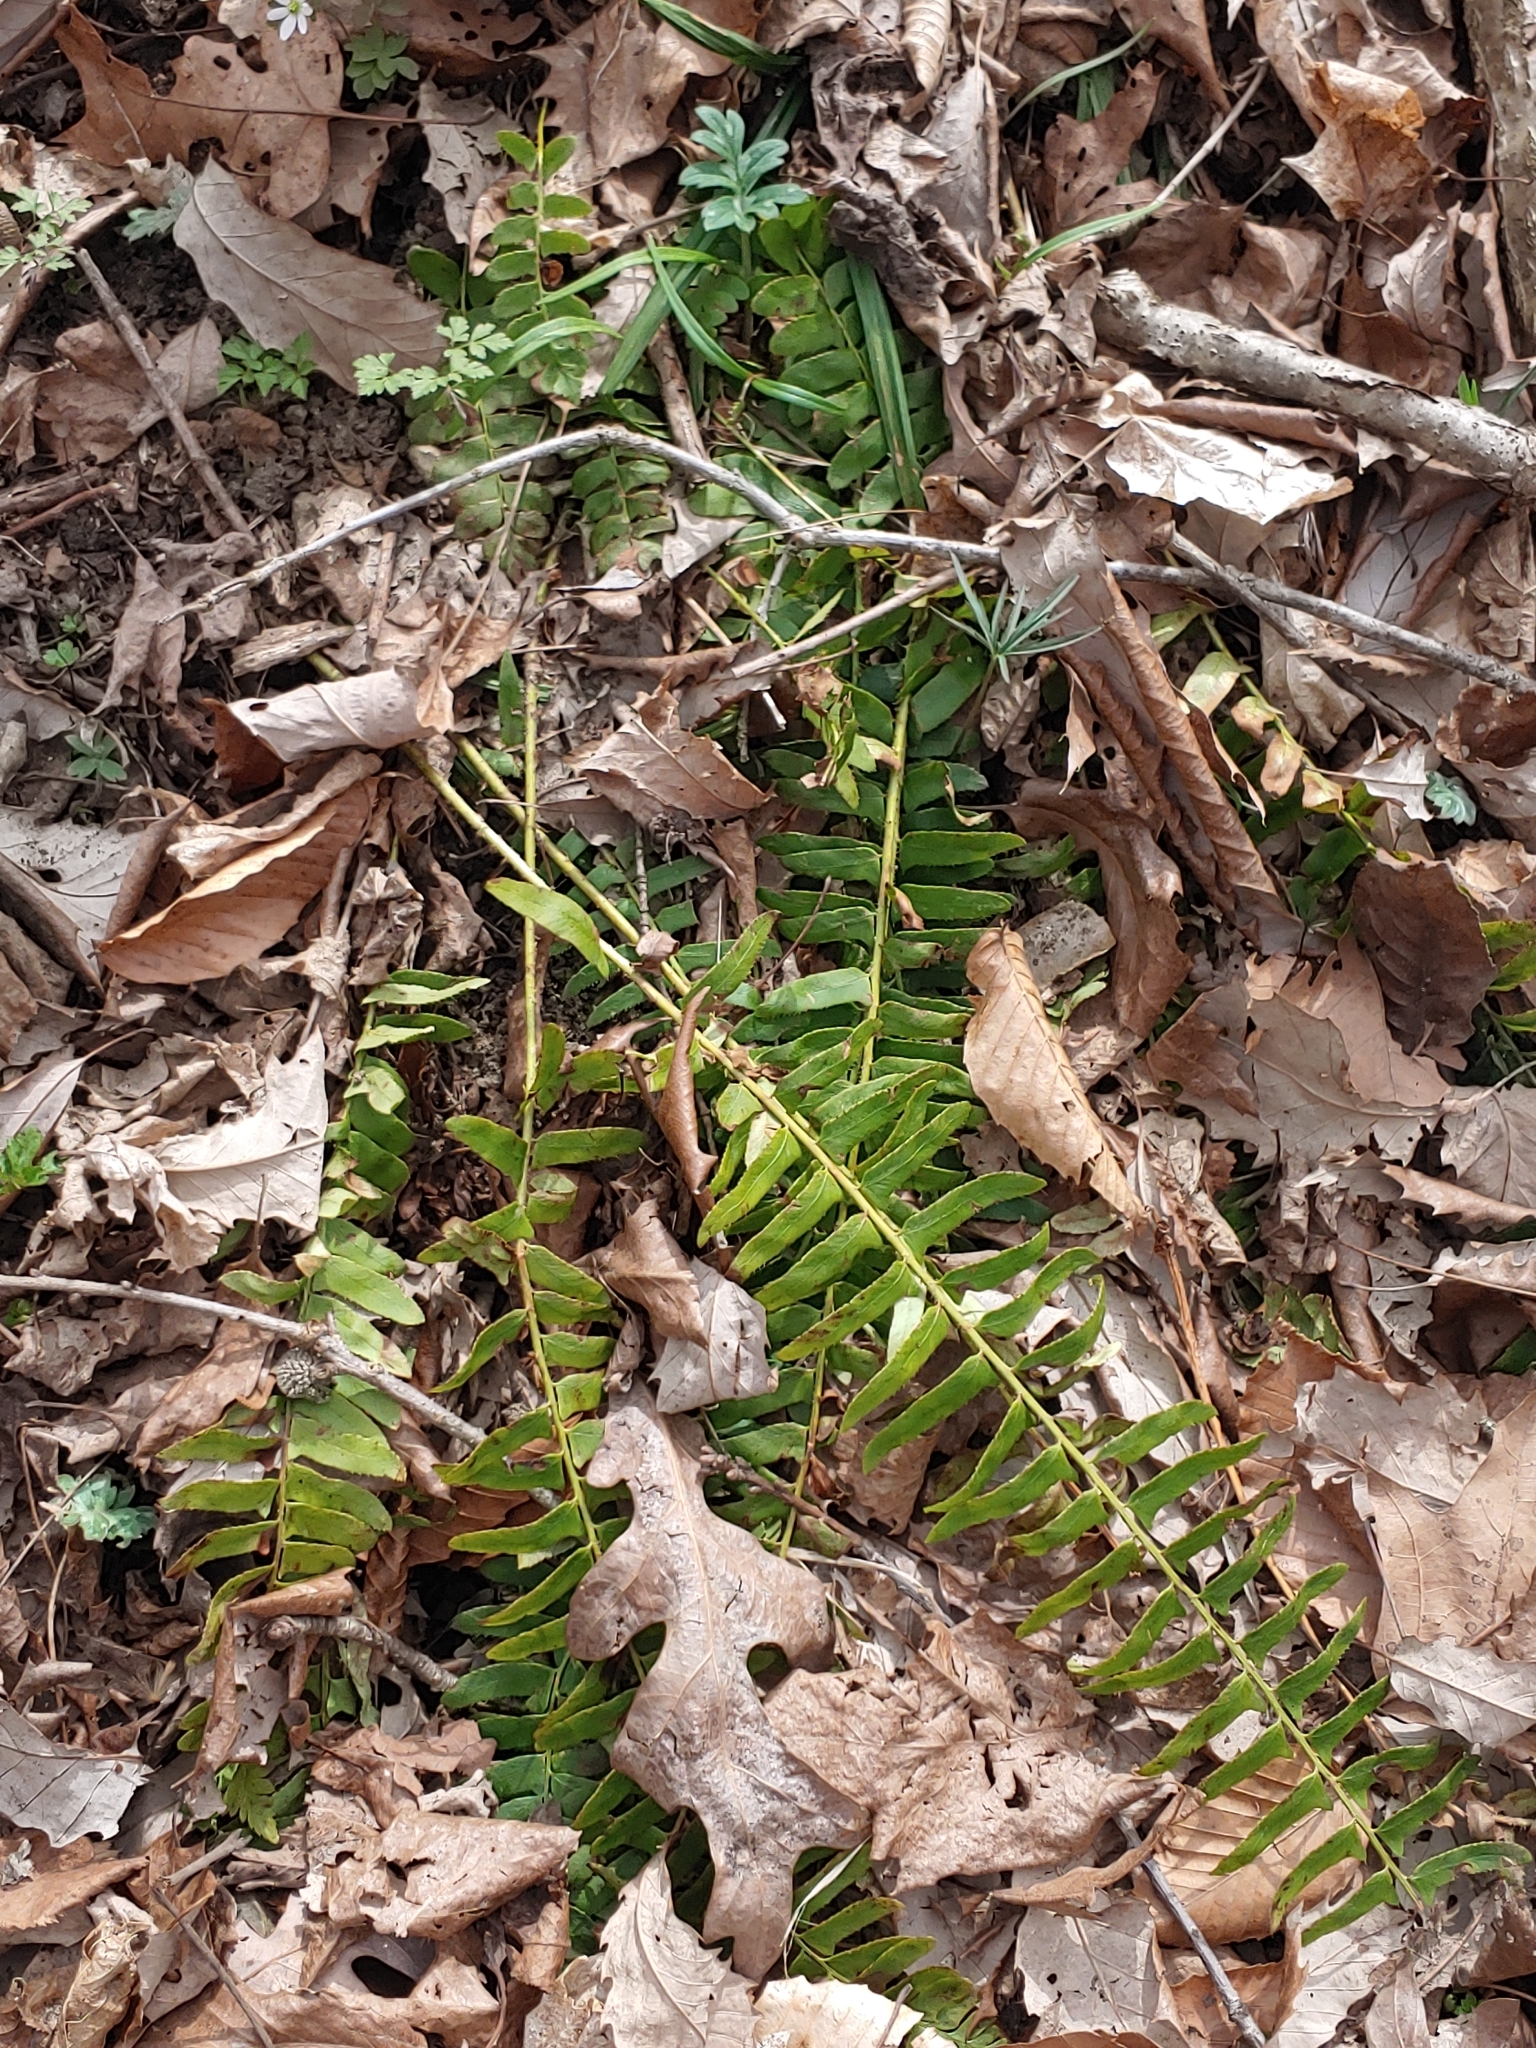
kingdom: Plantae
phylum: Tracheophyta
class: Polypodiopsida
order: Polypodiales
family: Dryopteridaceae
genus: Polystichum
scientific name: Polystichum acrostichoides
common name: Christmas fern
